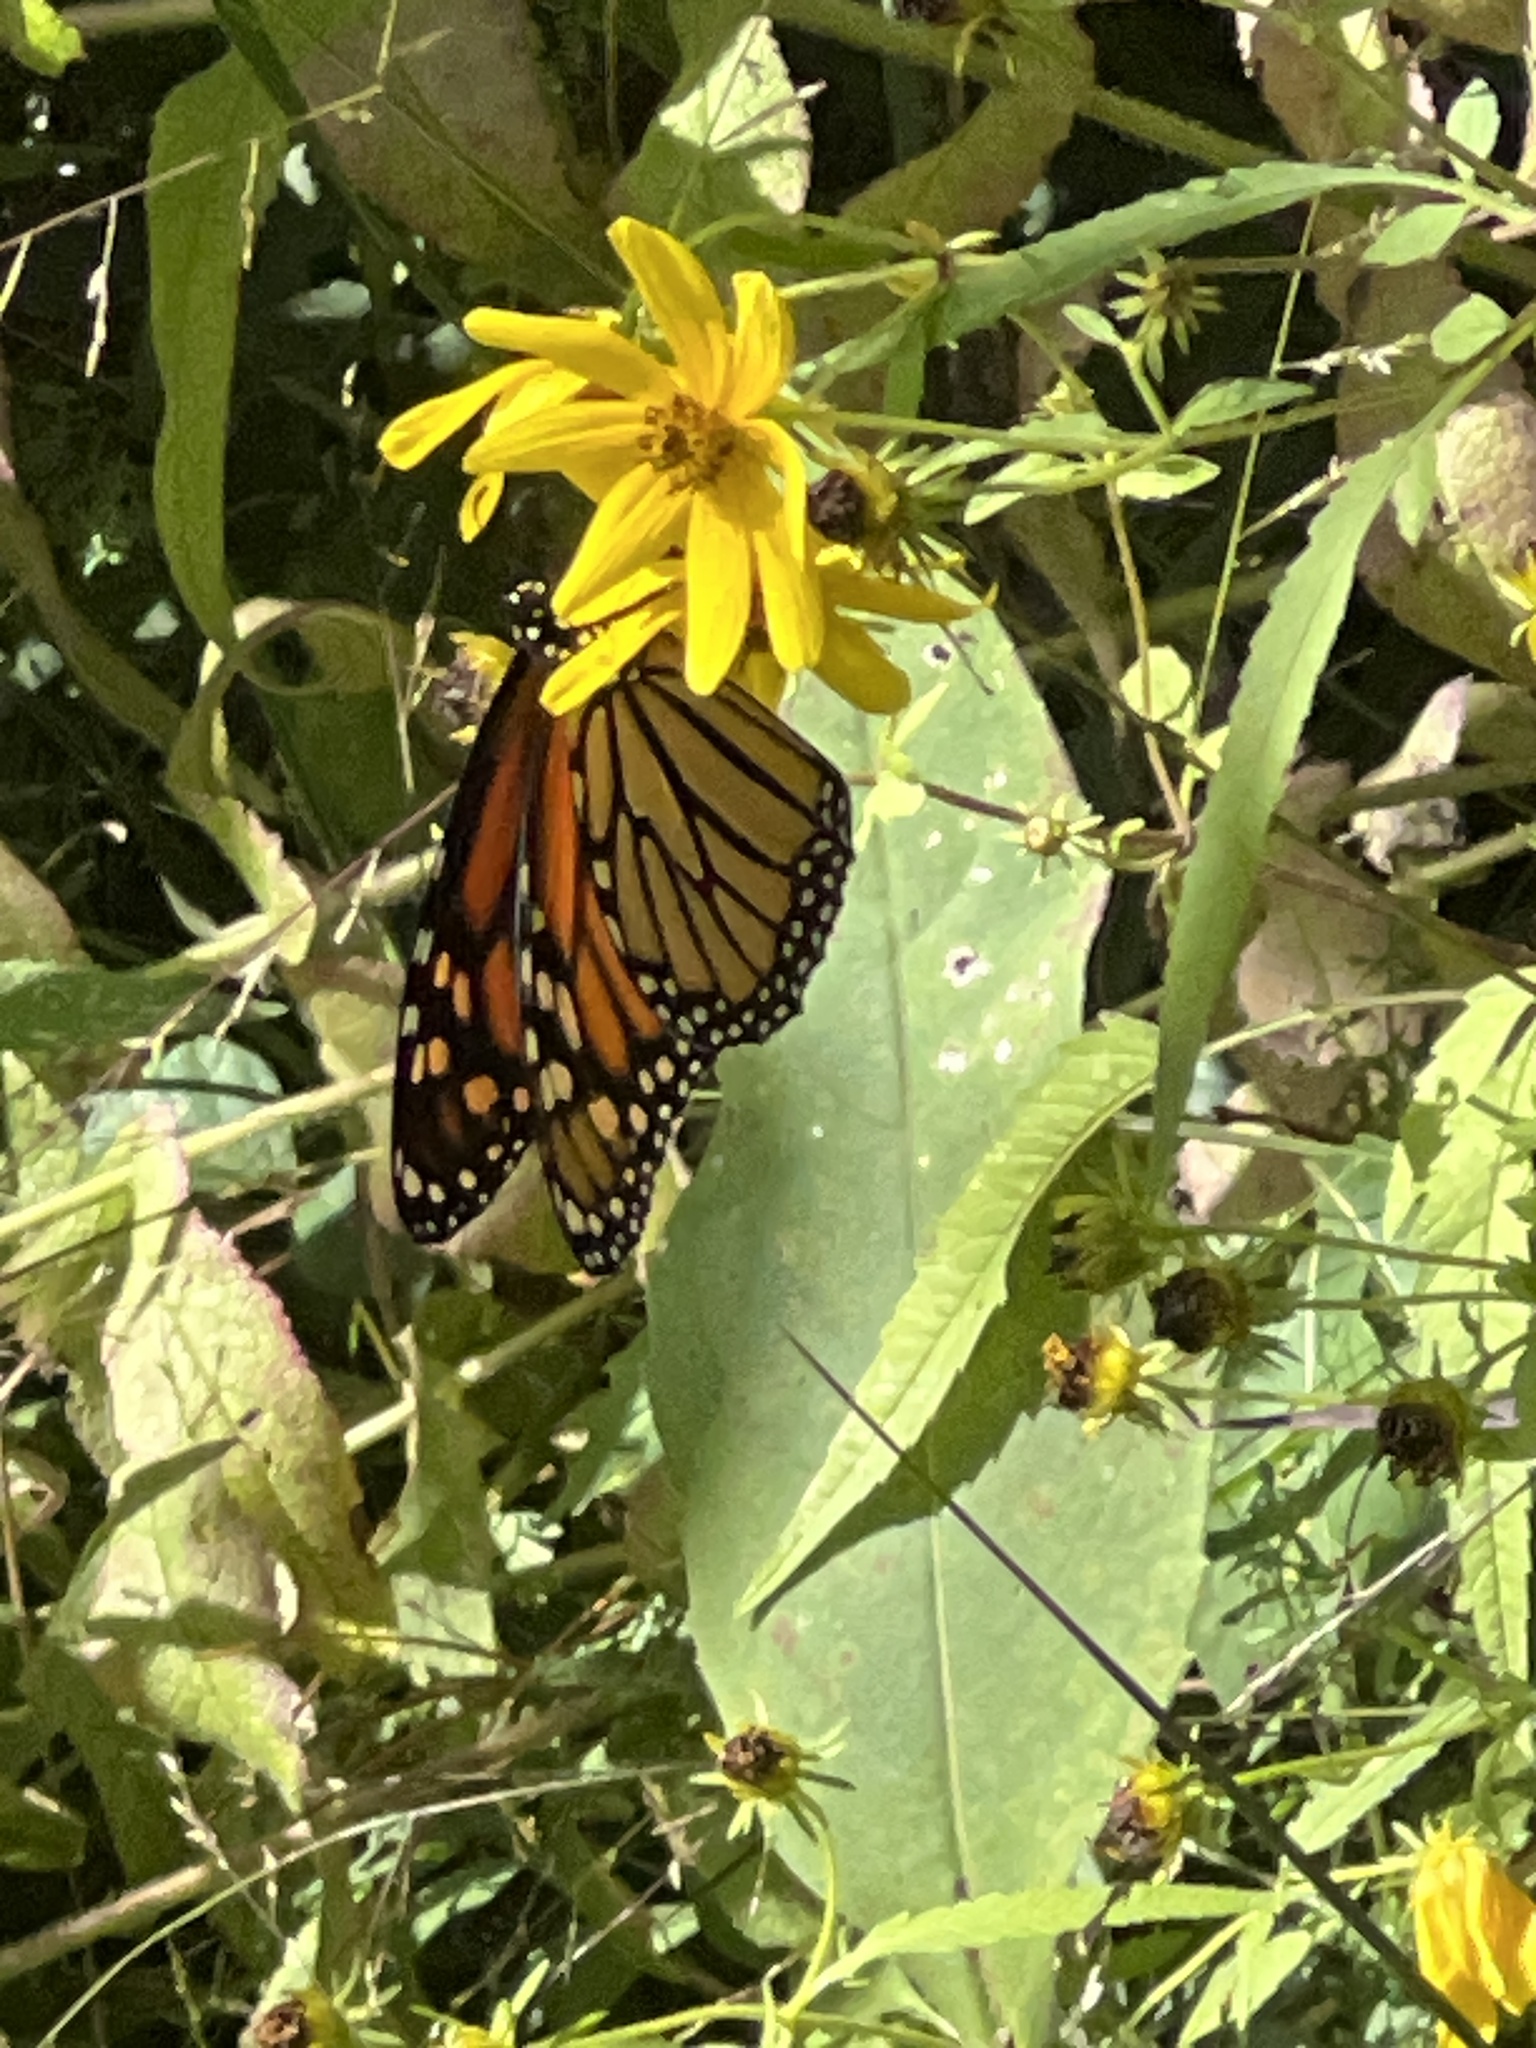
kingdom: Animalia
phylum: Arthropoda
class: Insecta
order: Lepidoptera
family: Nymphalidae
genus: Danaus
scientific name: Danaus plexippus
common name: Monarch
